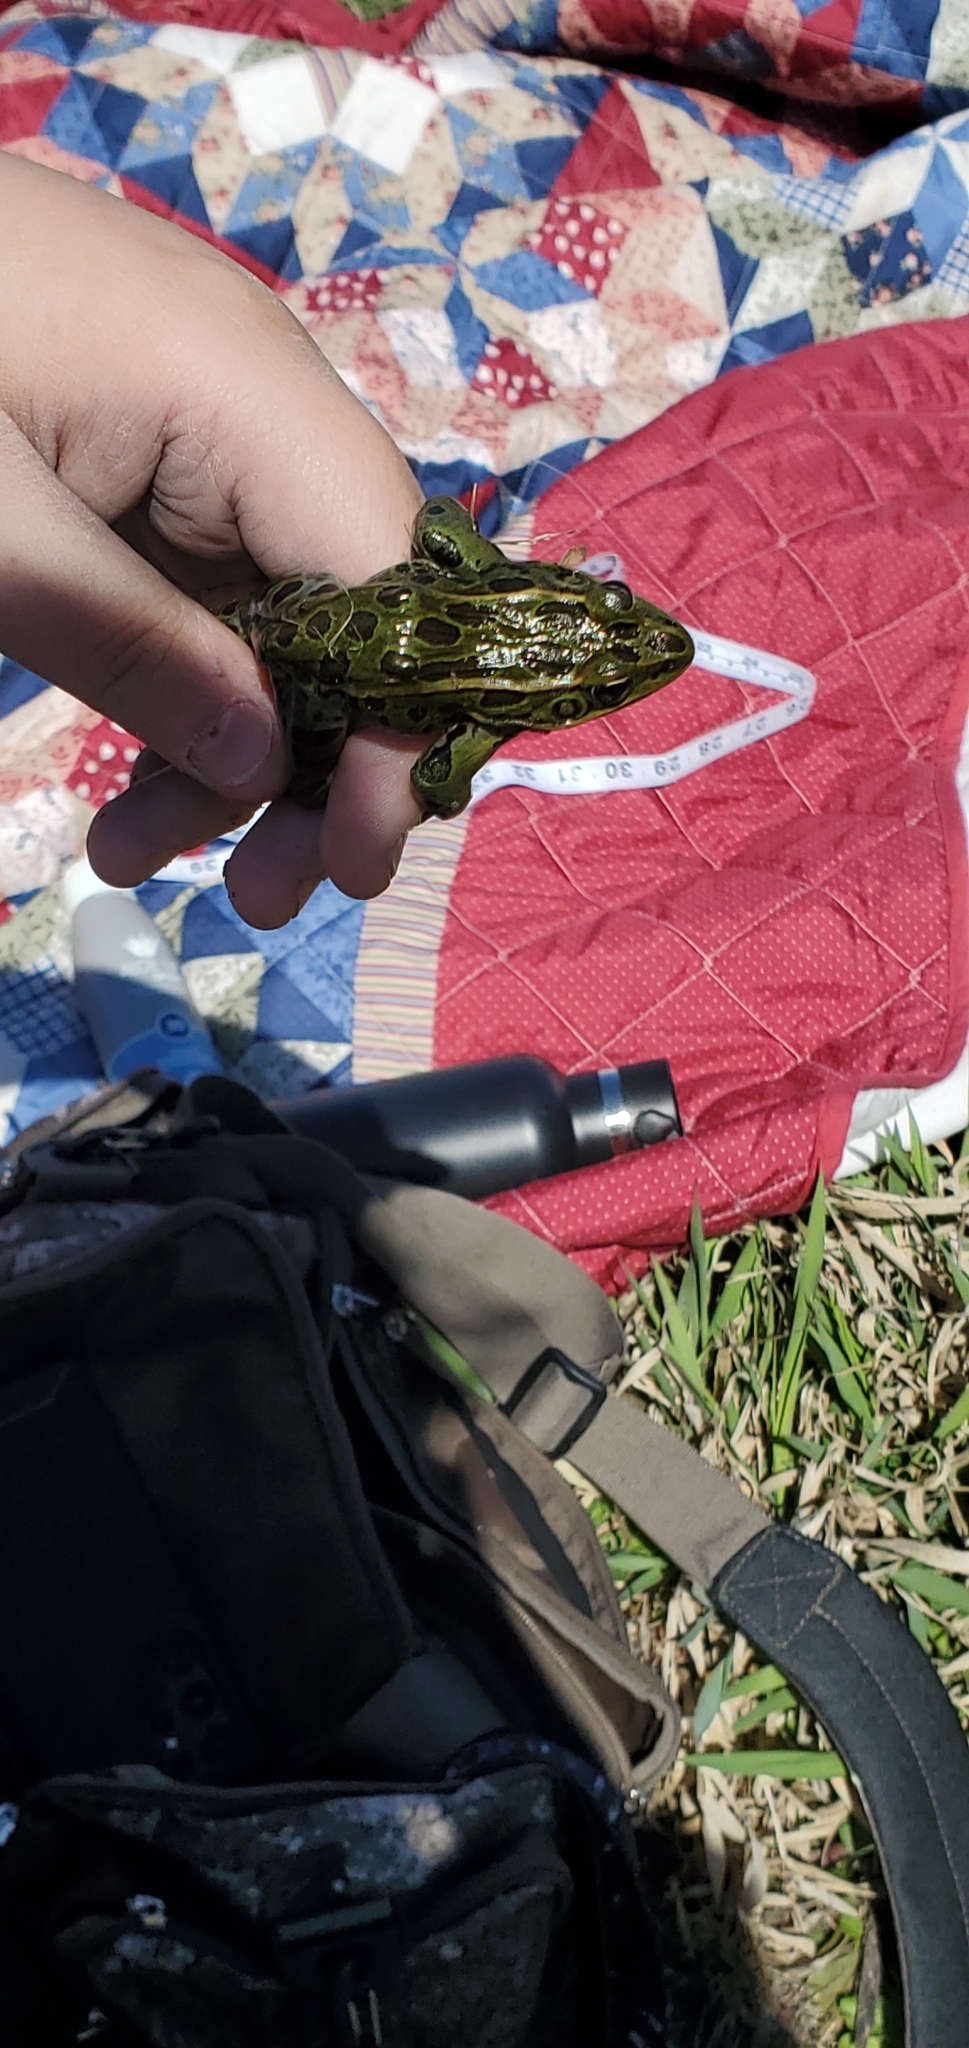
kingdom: Animalia
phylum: Chordata
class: Amphibia
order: Anura
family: Ranidae
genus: Lithobates
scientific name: Lithobates pipiens
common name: Northern leopard frog
